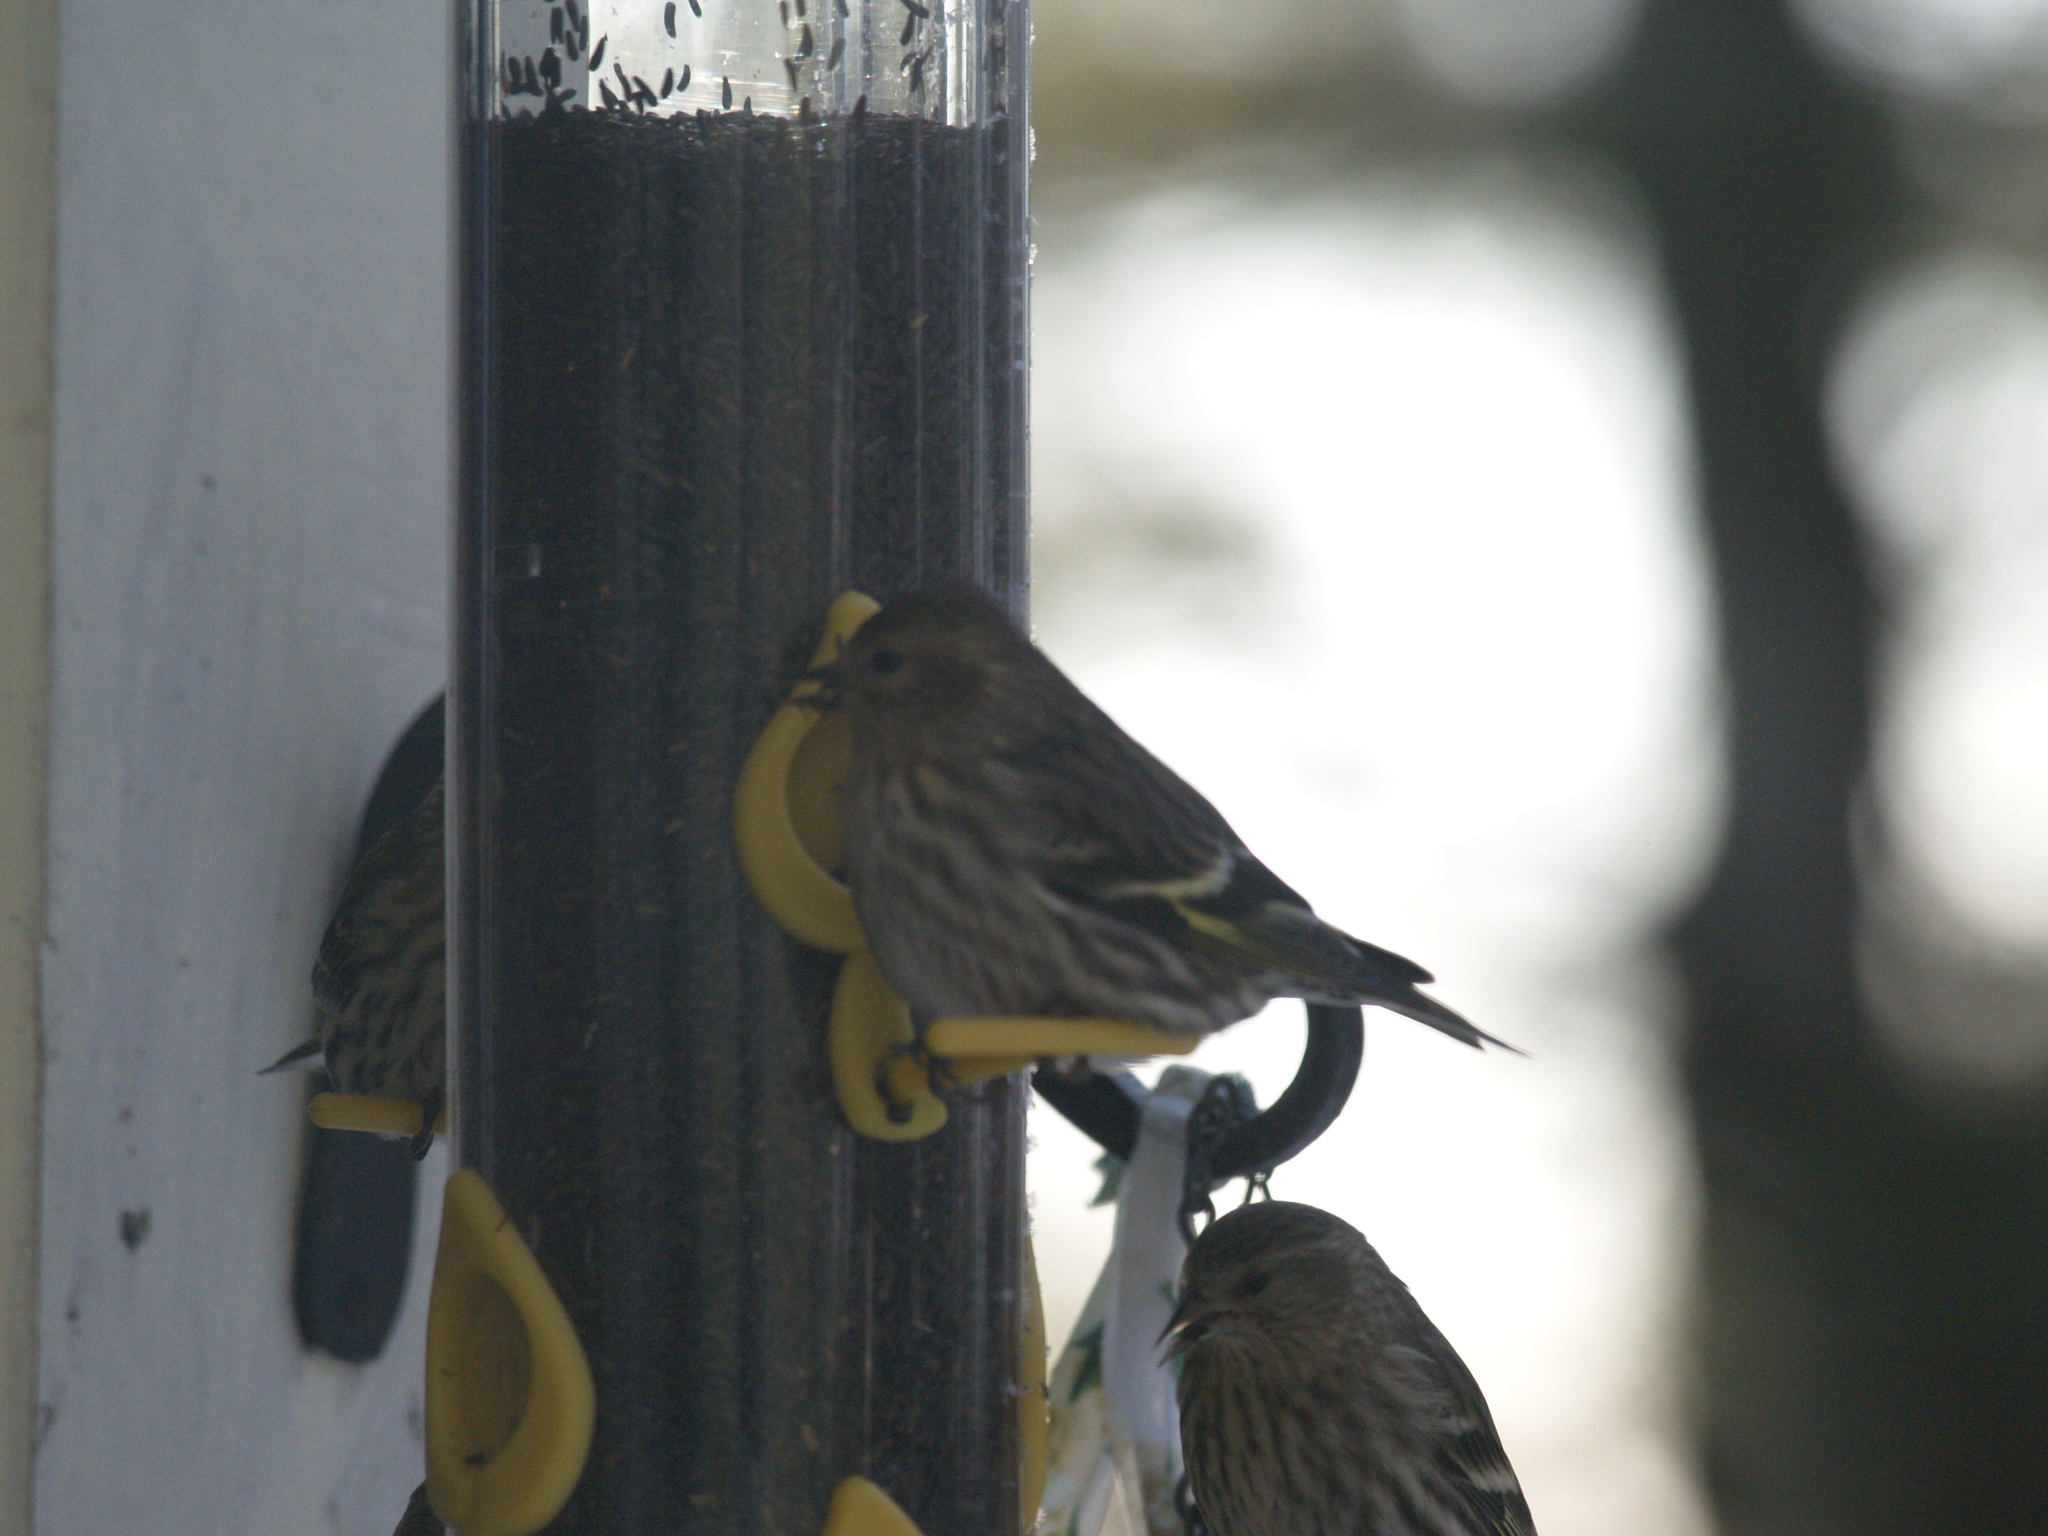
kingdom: Animalia
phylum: Chordata
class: Aves
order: Passeriformes
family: Fringillidae
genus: Spinus
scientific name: Spinus pinus
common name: Pine siskin
